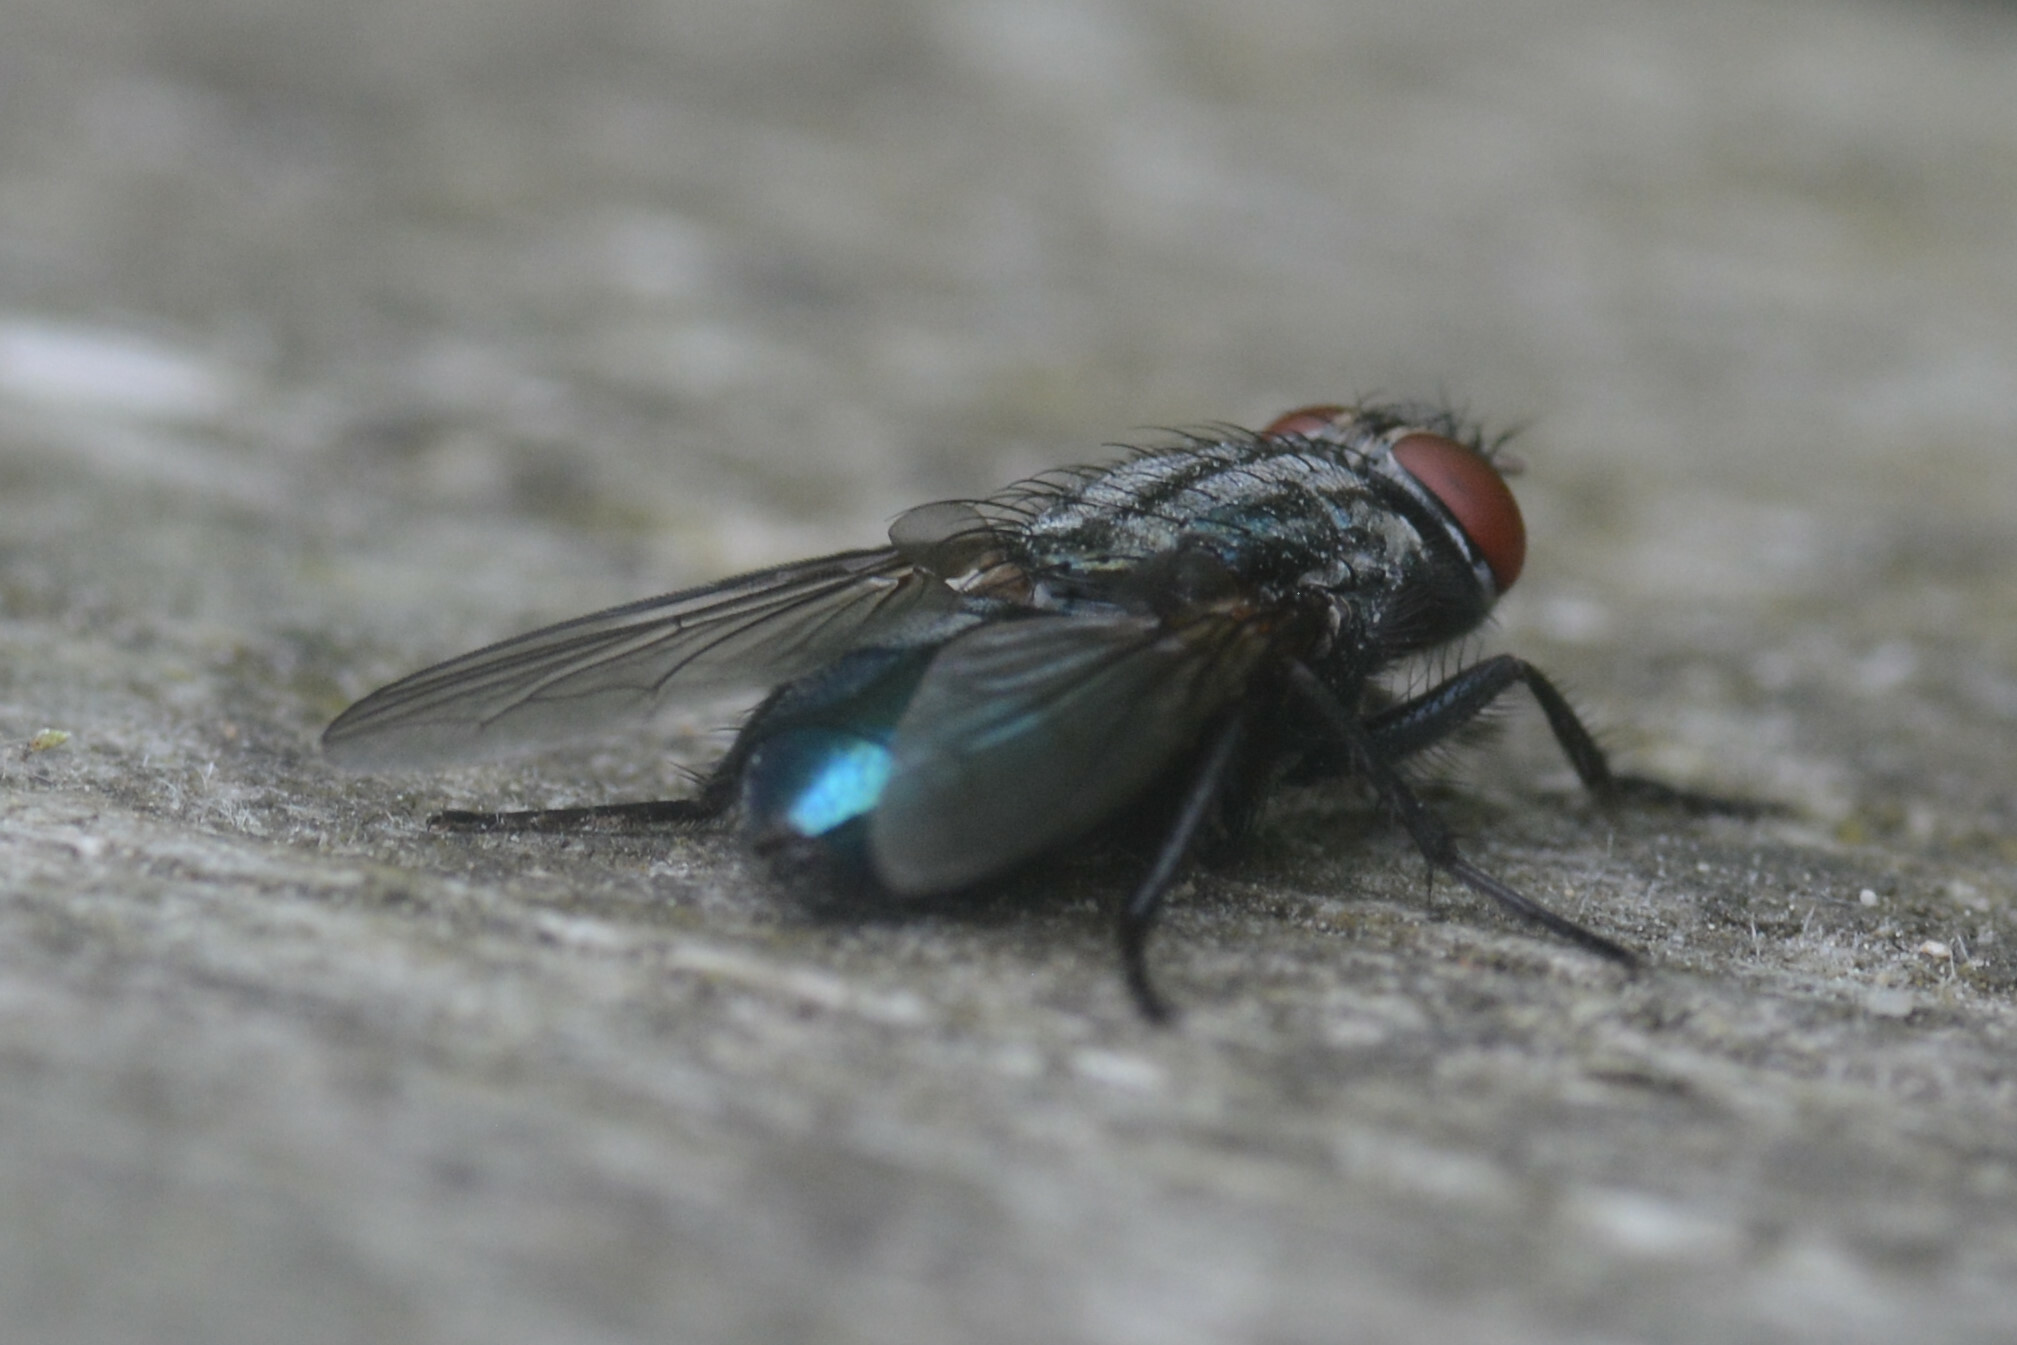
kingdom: Animalia
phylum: Arthropoda
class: Insecta
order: Diptera
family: Calliphoridae
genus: Protocalliphora
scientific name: Protocalliphora azurea
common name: Bird blowfly
